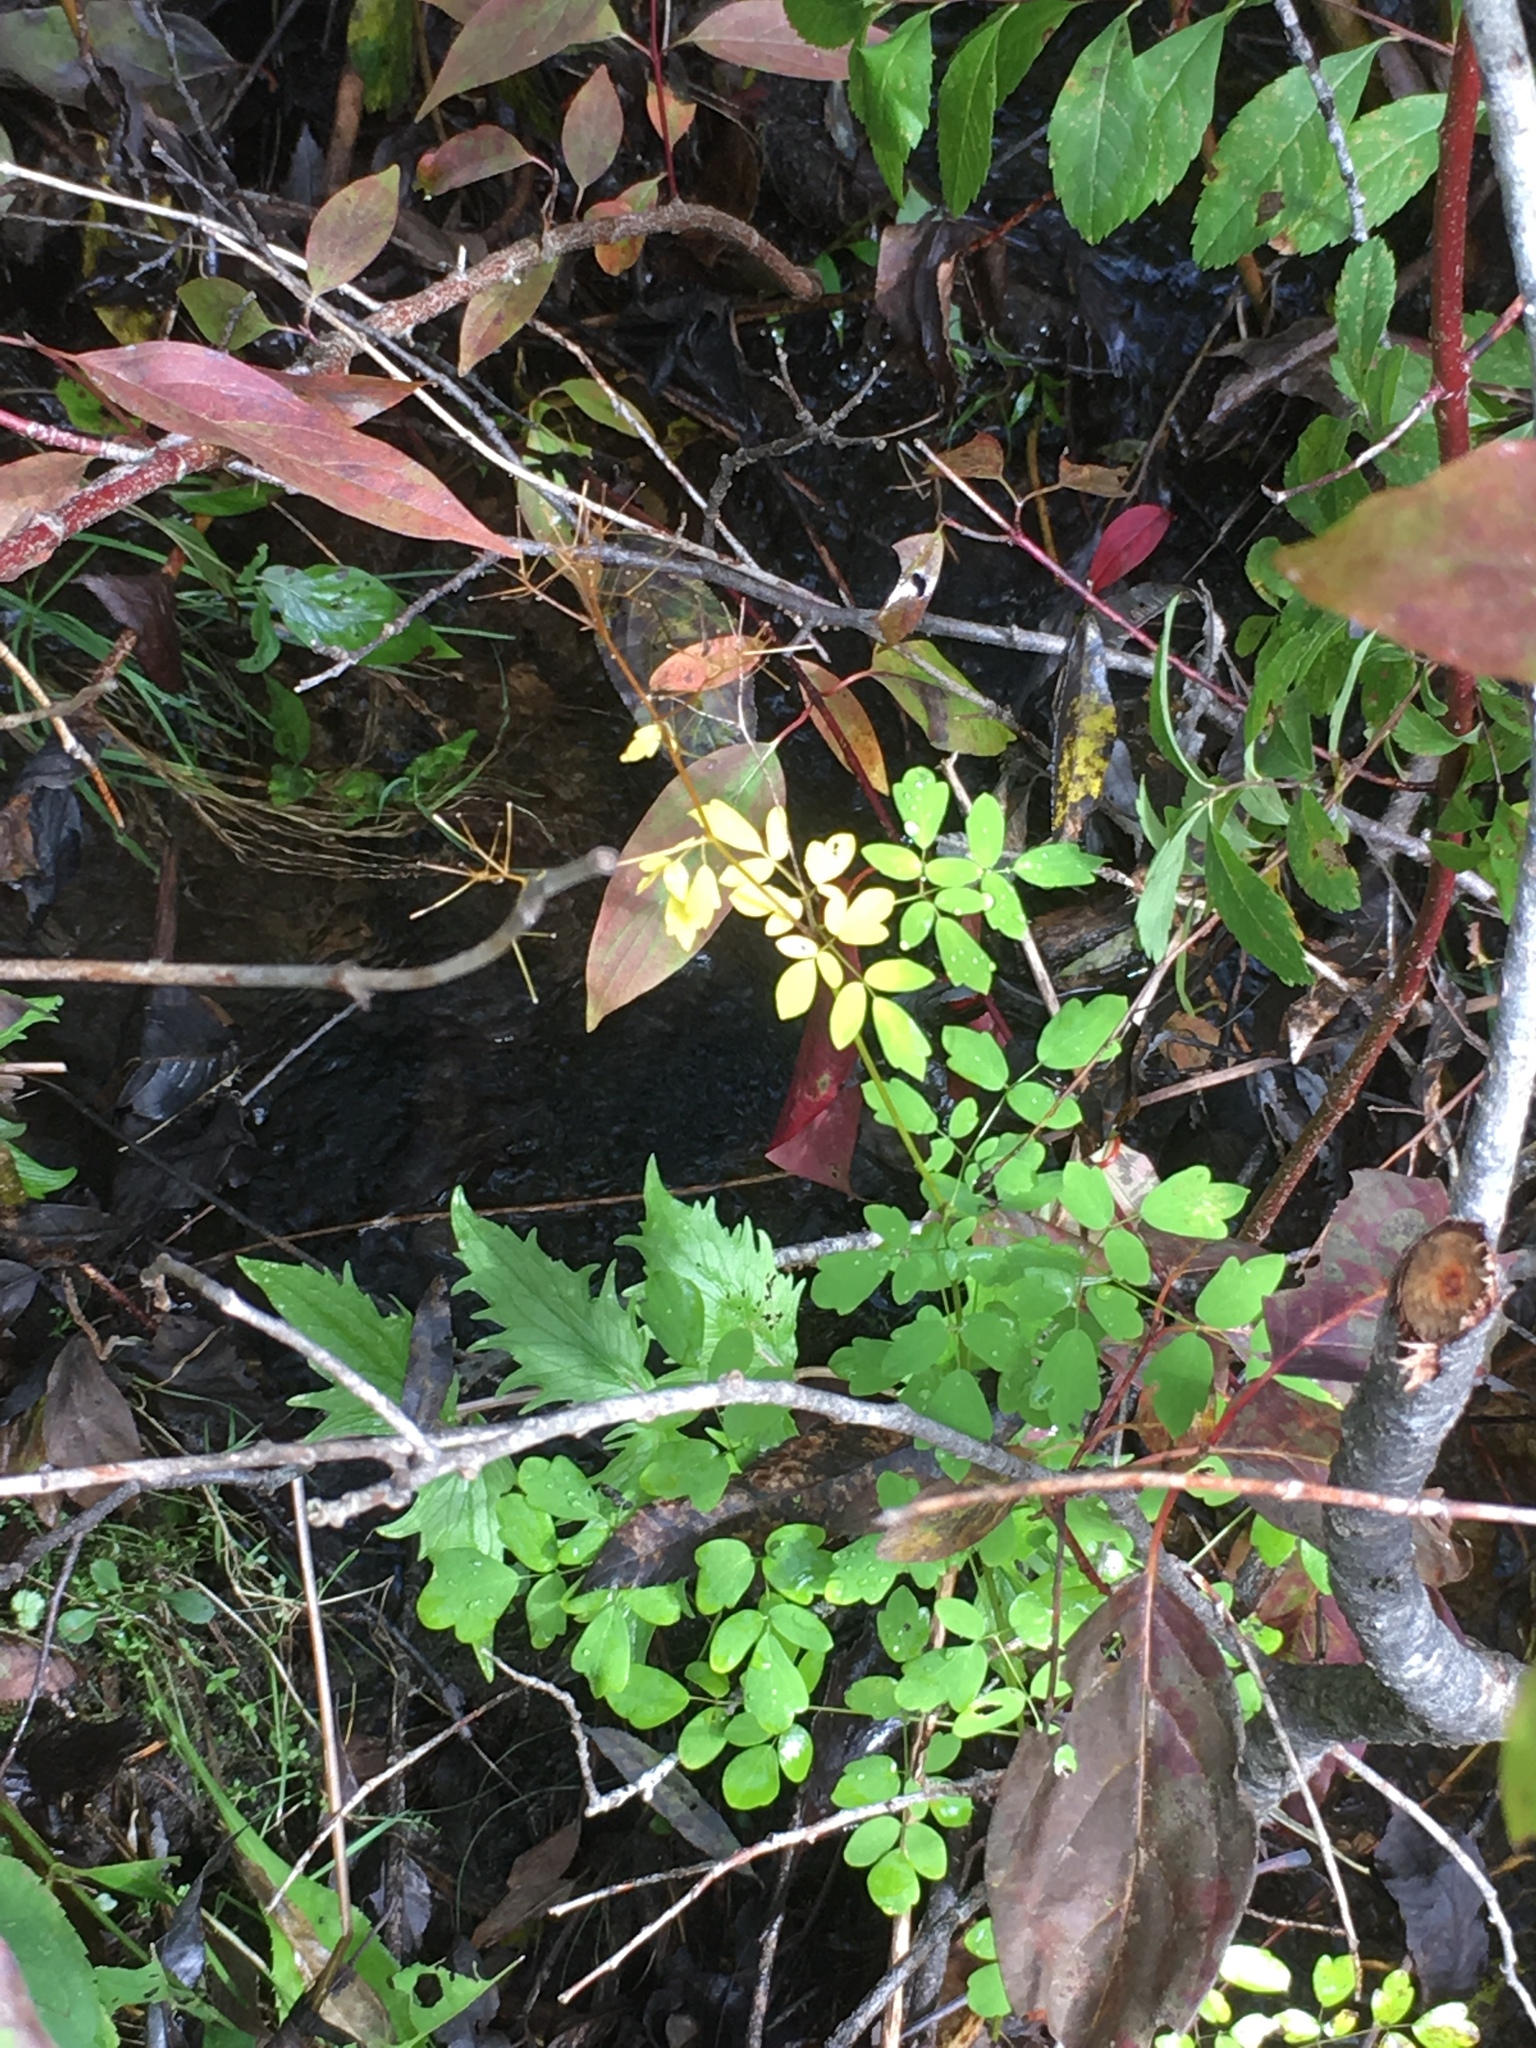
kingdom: Plantae
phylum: Tracheophyta
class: Magnoliopsida
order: Ranunculales
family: Ranunculaceae
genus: Thalictrum
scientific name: Thalictrum pubescens
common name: King-of-the-meadow
